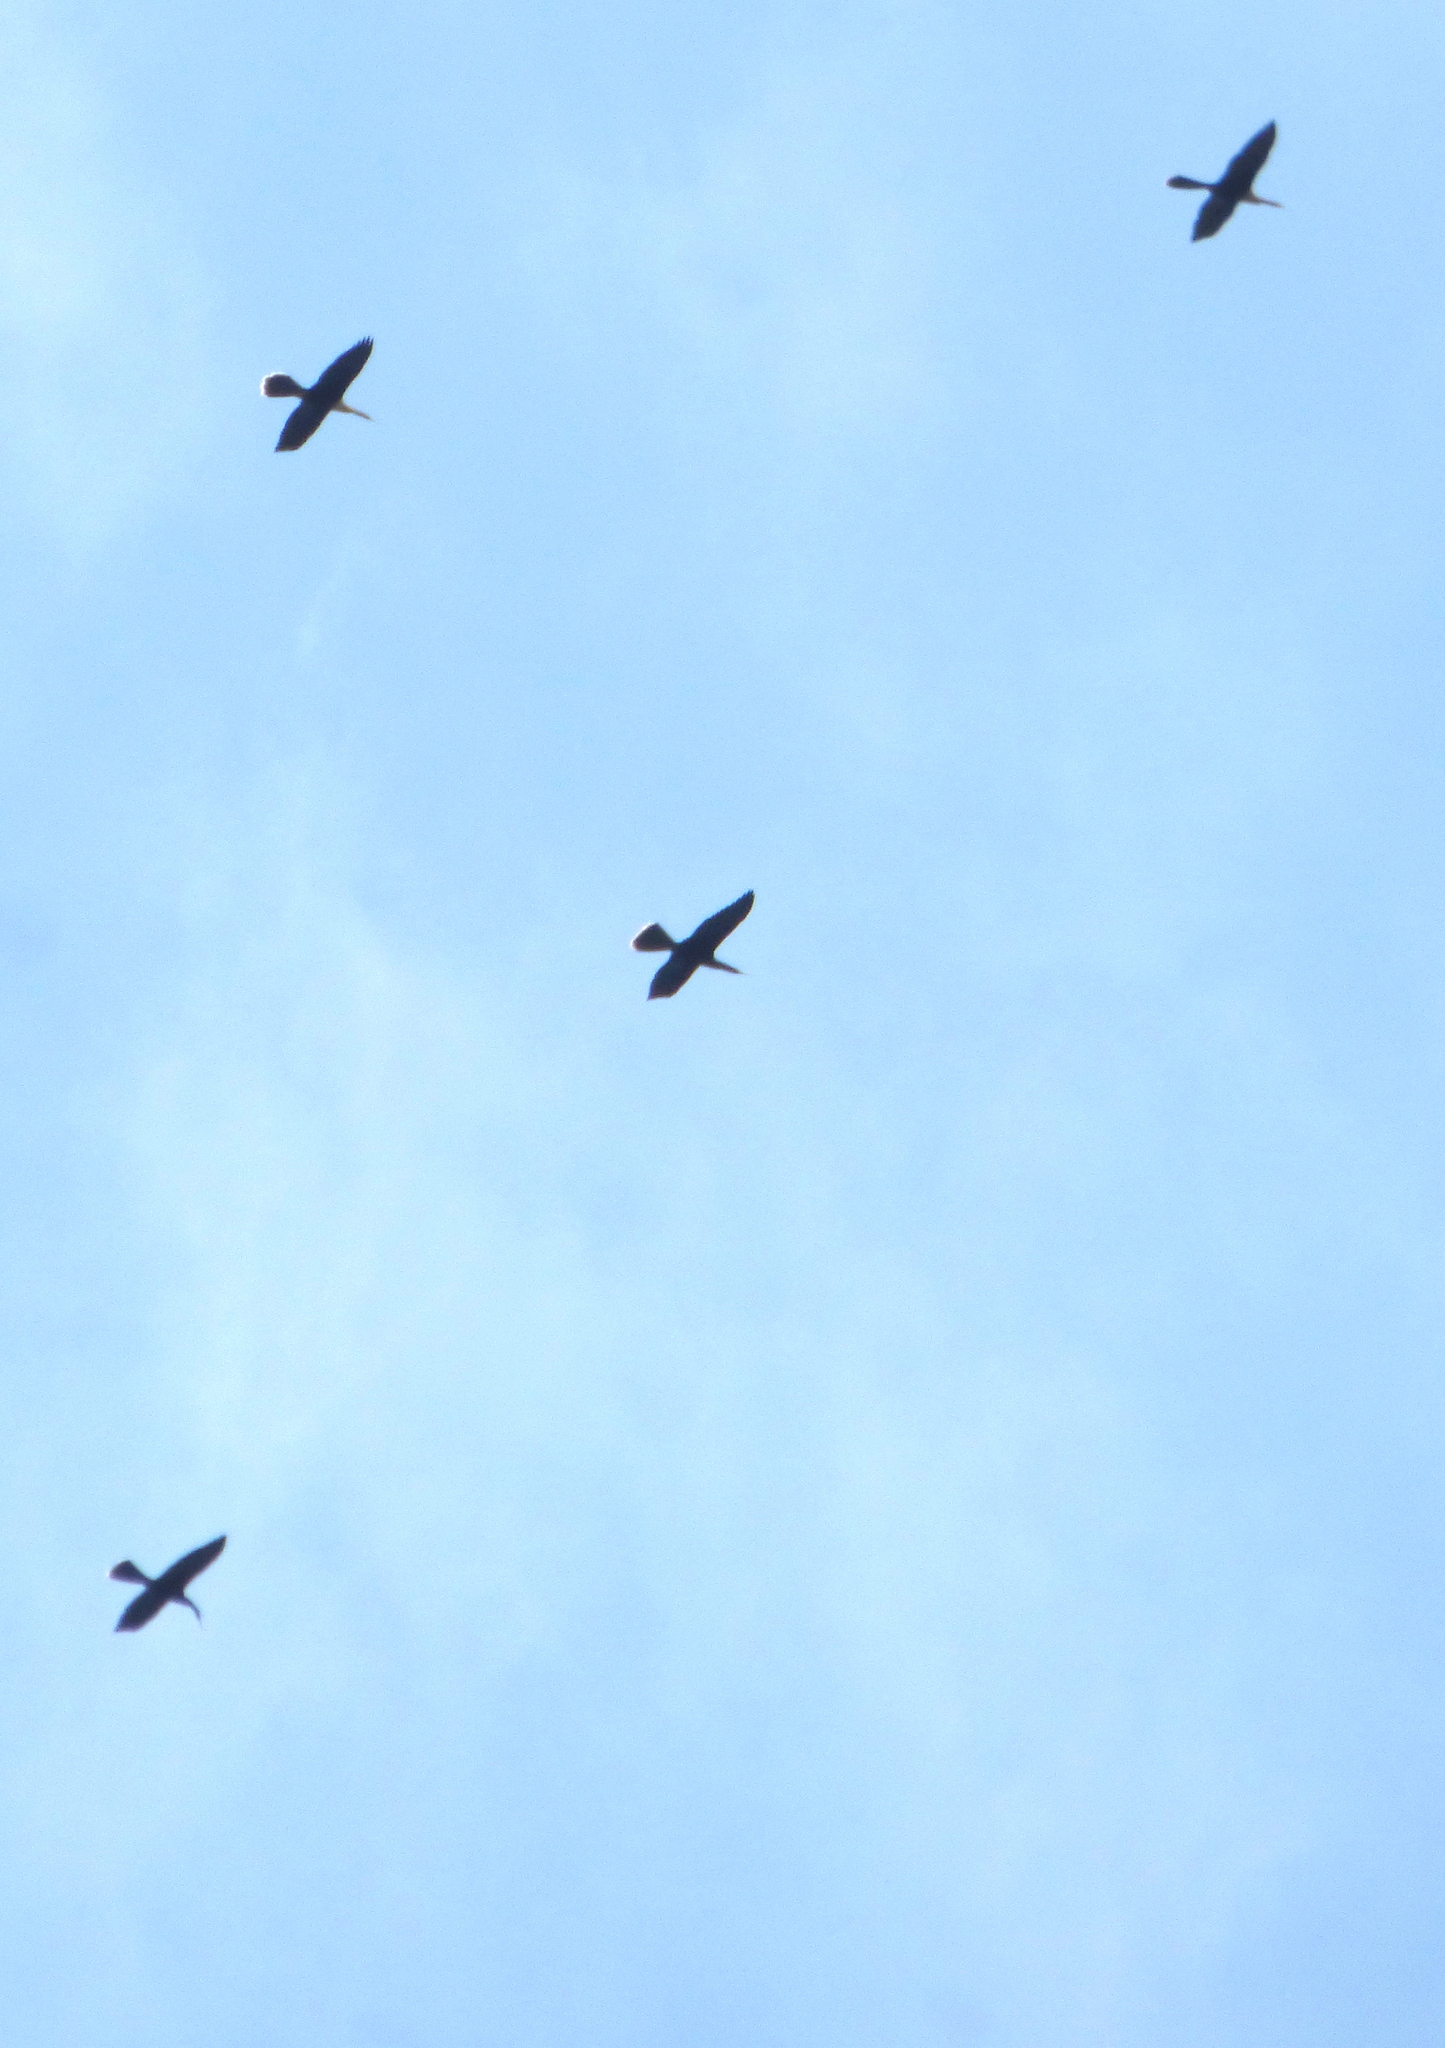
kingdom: Animalia
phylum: Chordata
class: Aves
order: Suliformes
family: Anhingidae
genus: Anhinga
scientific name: Anhinga anhinga
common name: Anhinga
